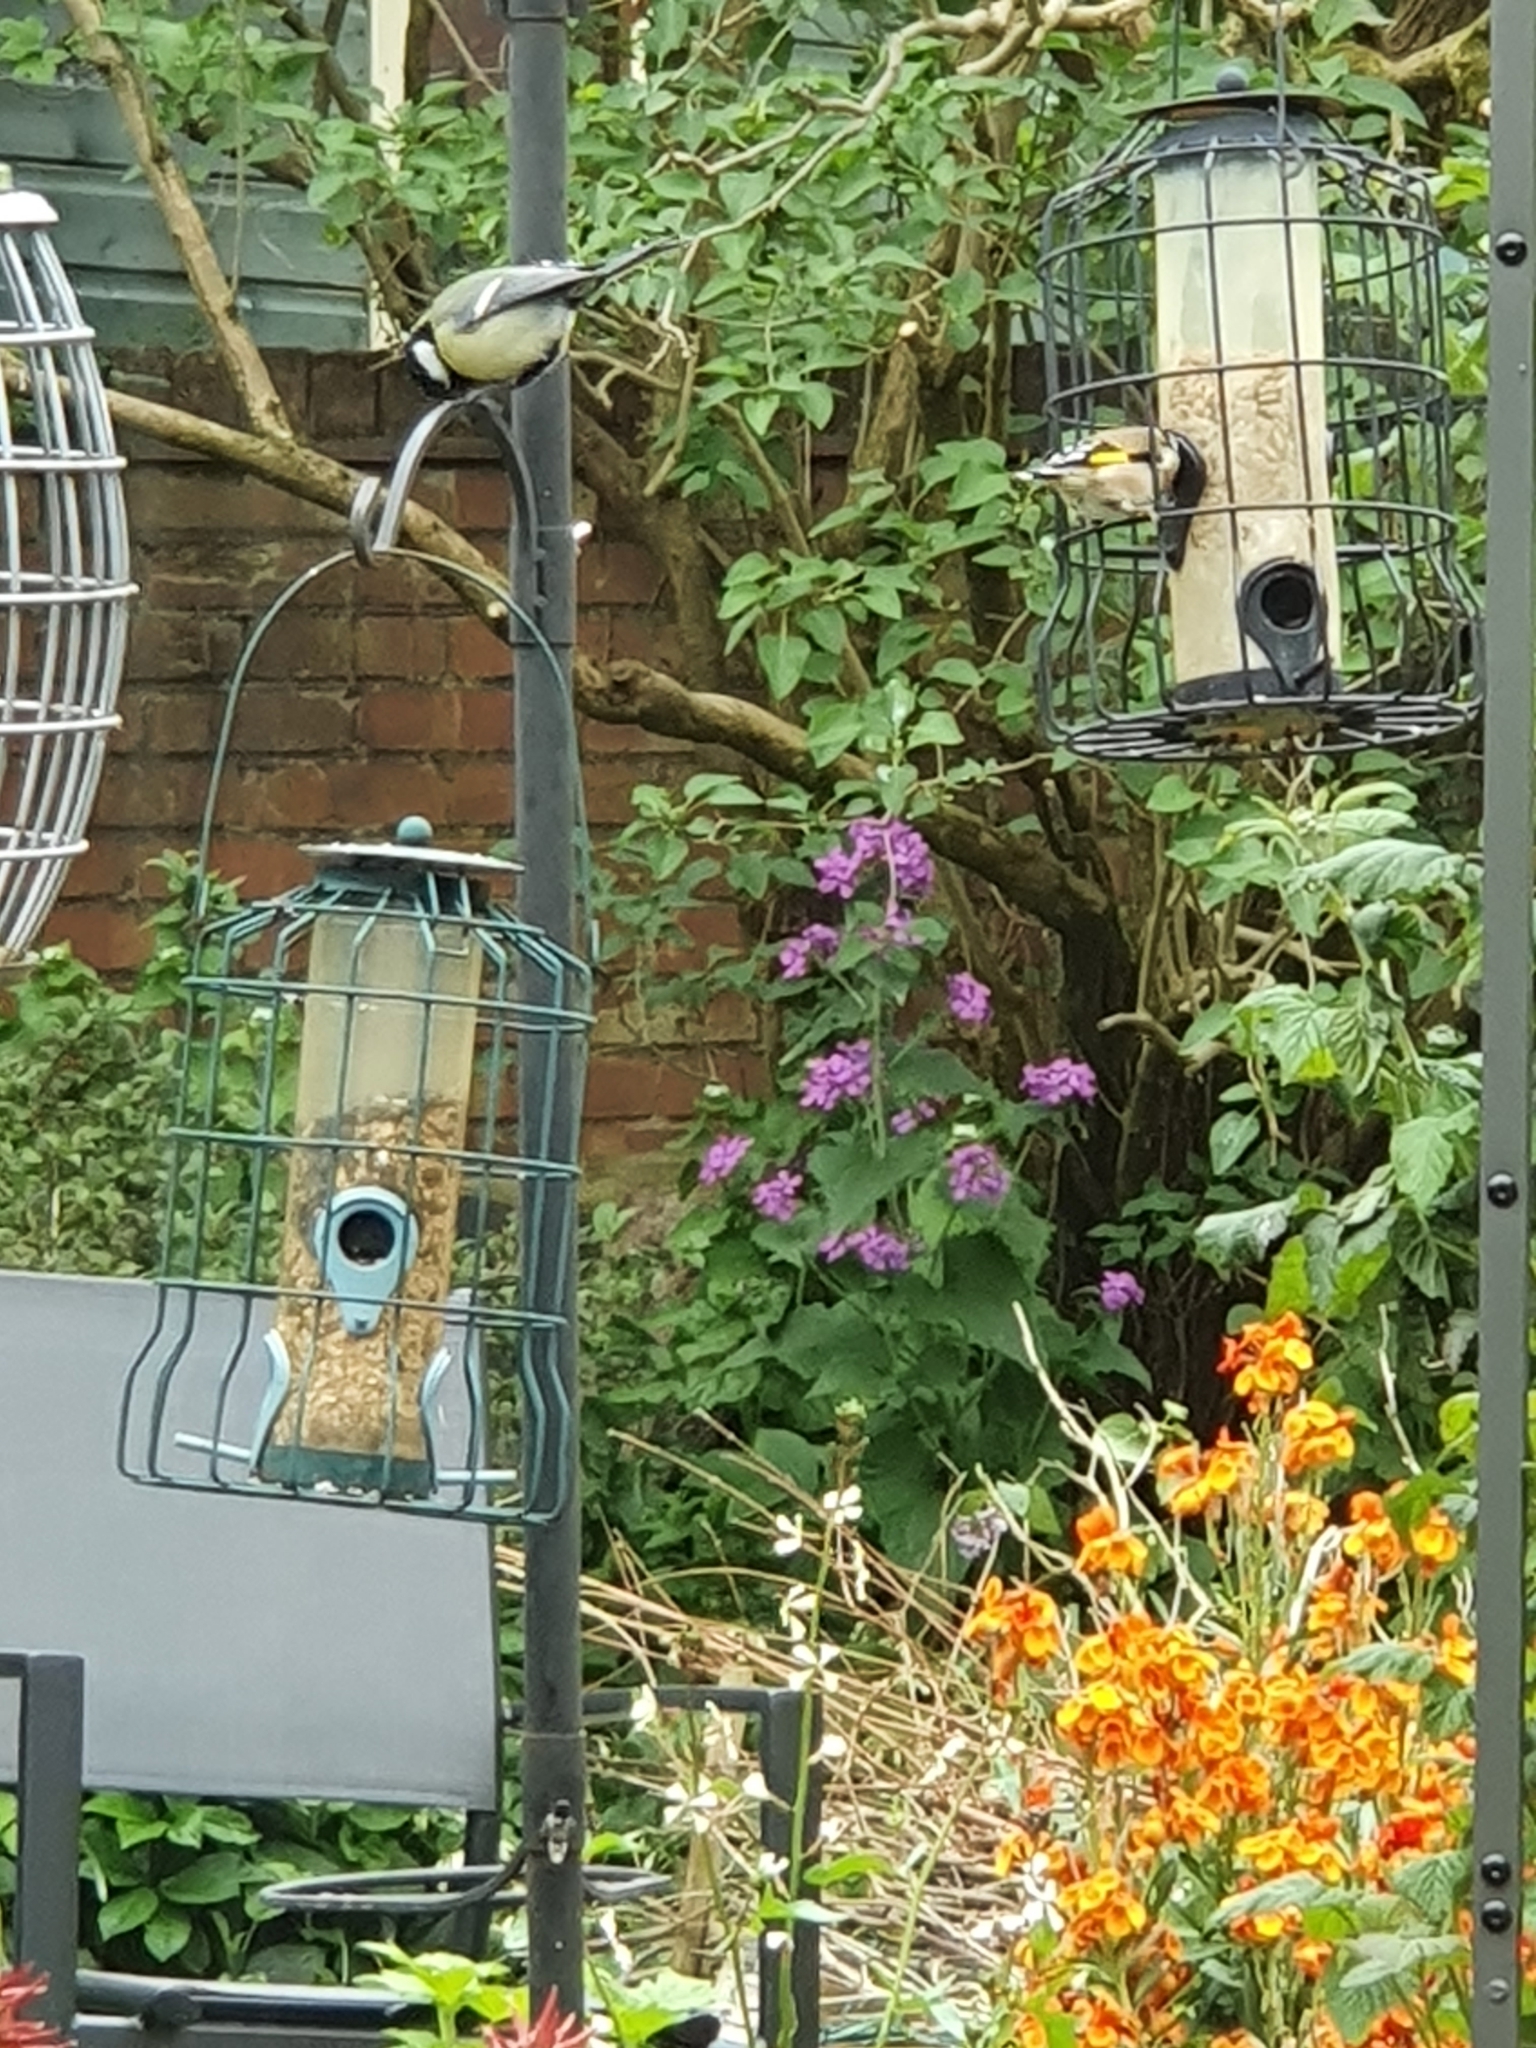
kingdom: Animalia
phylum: Chordata
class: Aves
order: Passeriformes
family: Fringillidae
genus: Carduelis
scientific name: Carduelis carduelis
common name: European goldfinch
